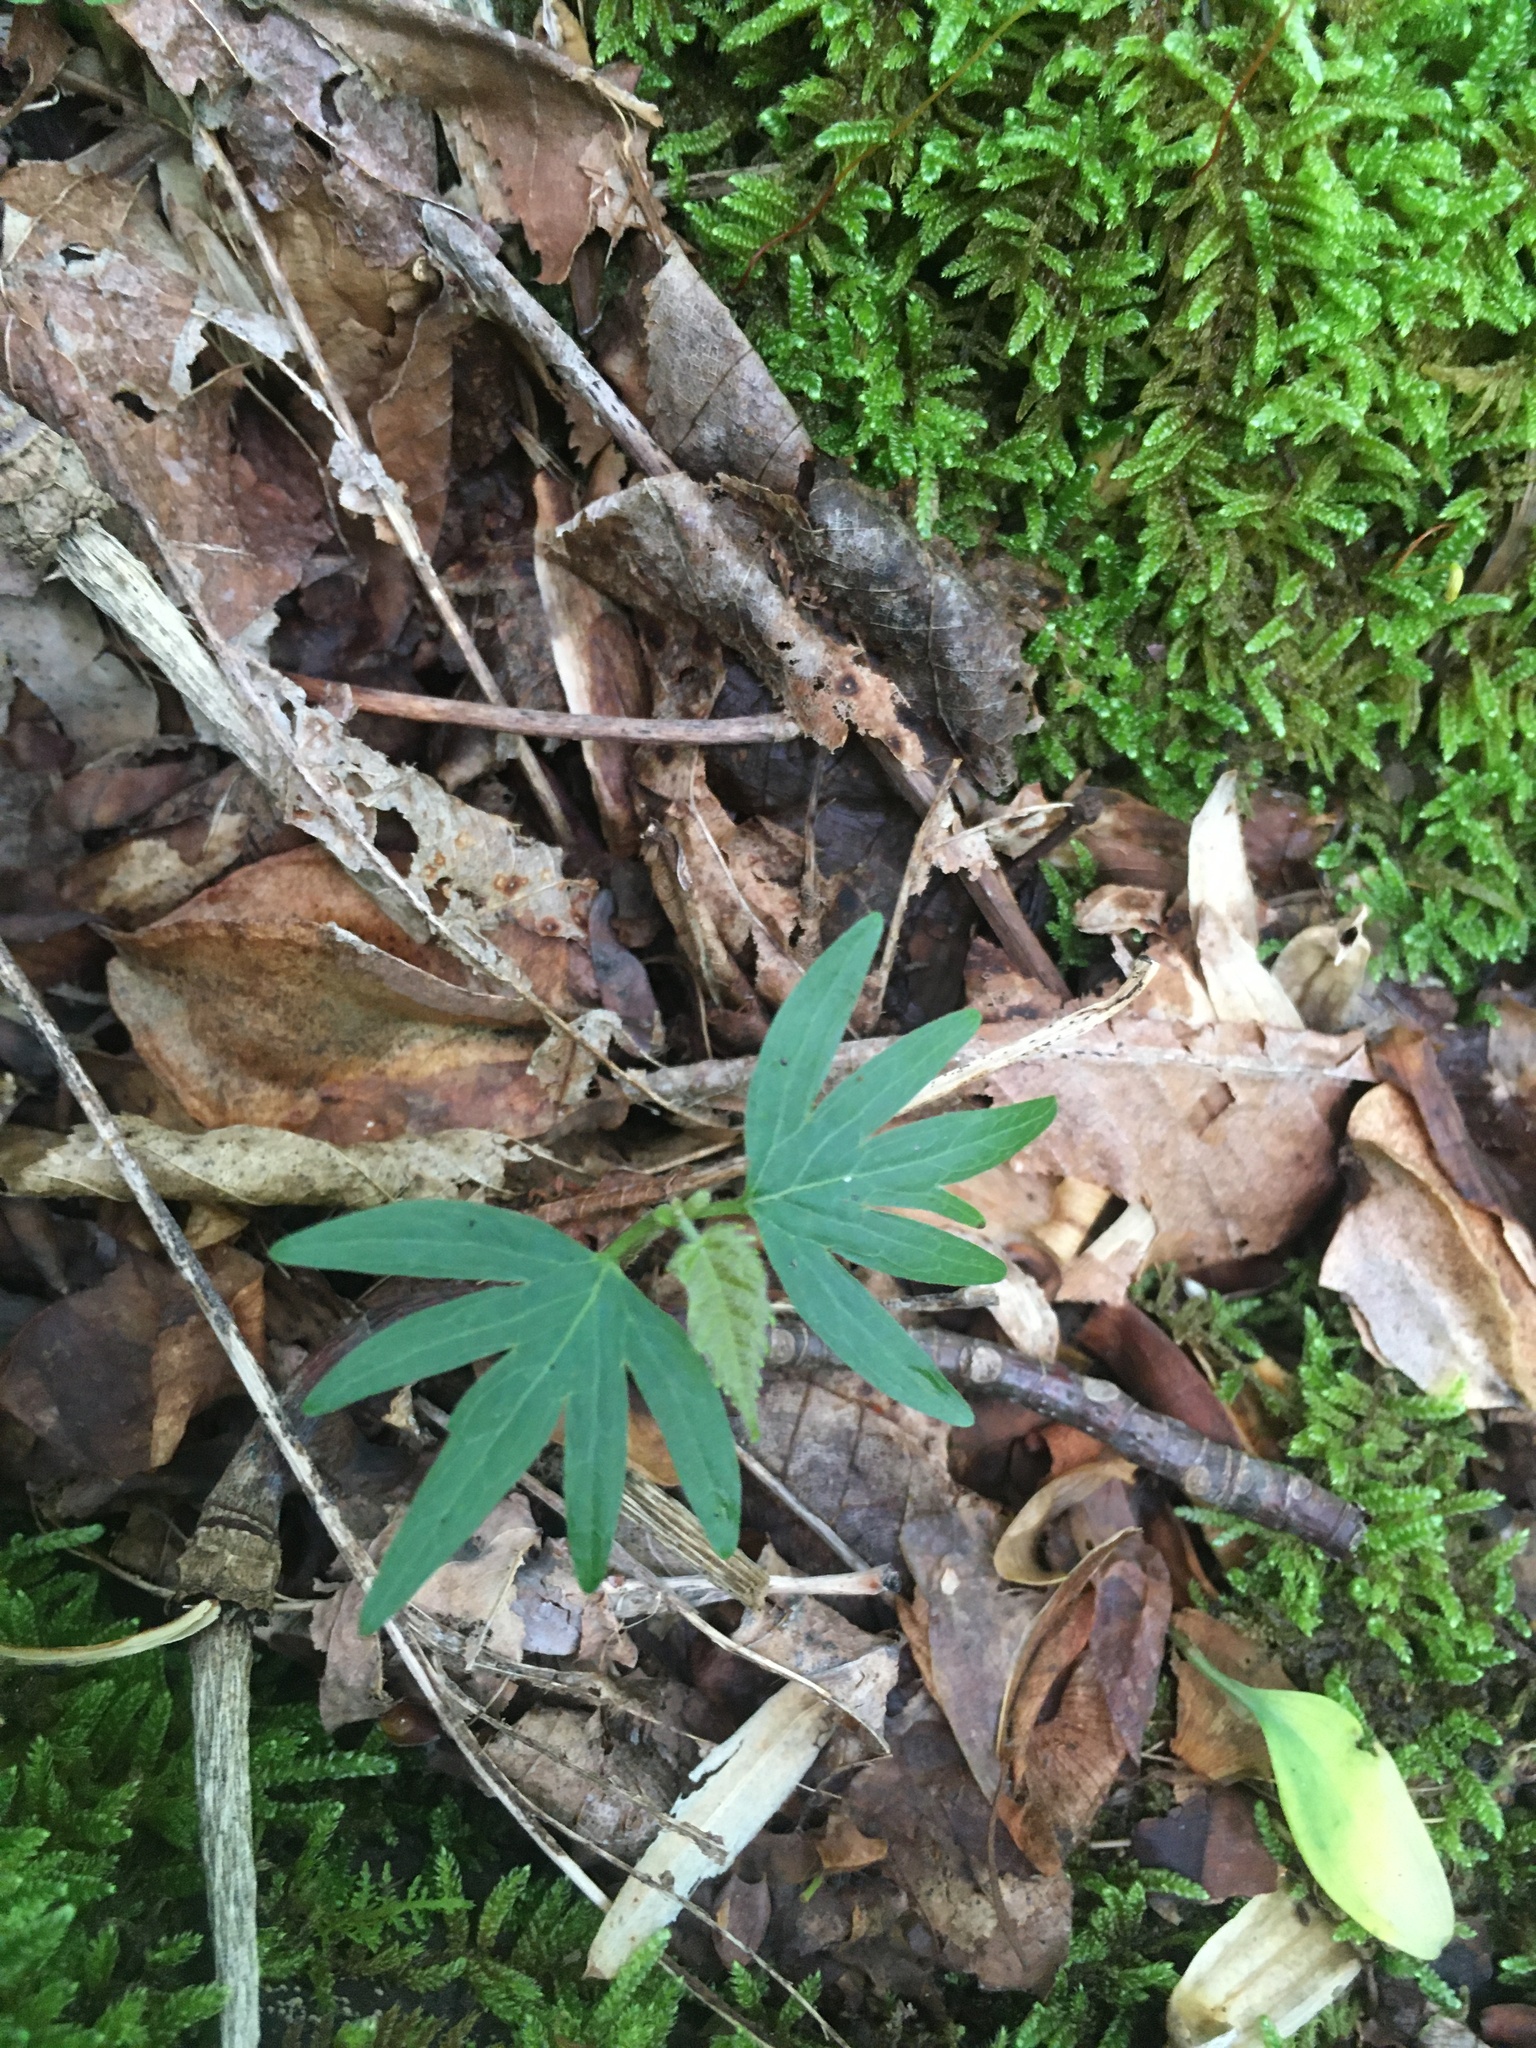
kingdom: Plantae
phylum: Tracheophyta
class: Magnoliopsida
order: Malvales
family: Malvaceae
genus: Tilia
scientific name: Tilia americana
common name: Basswood
